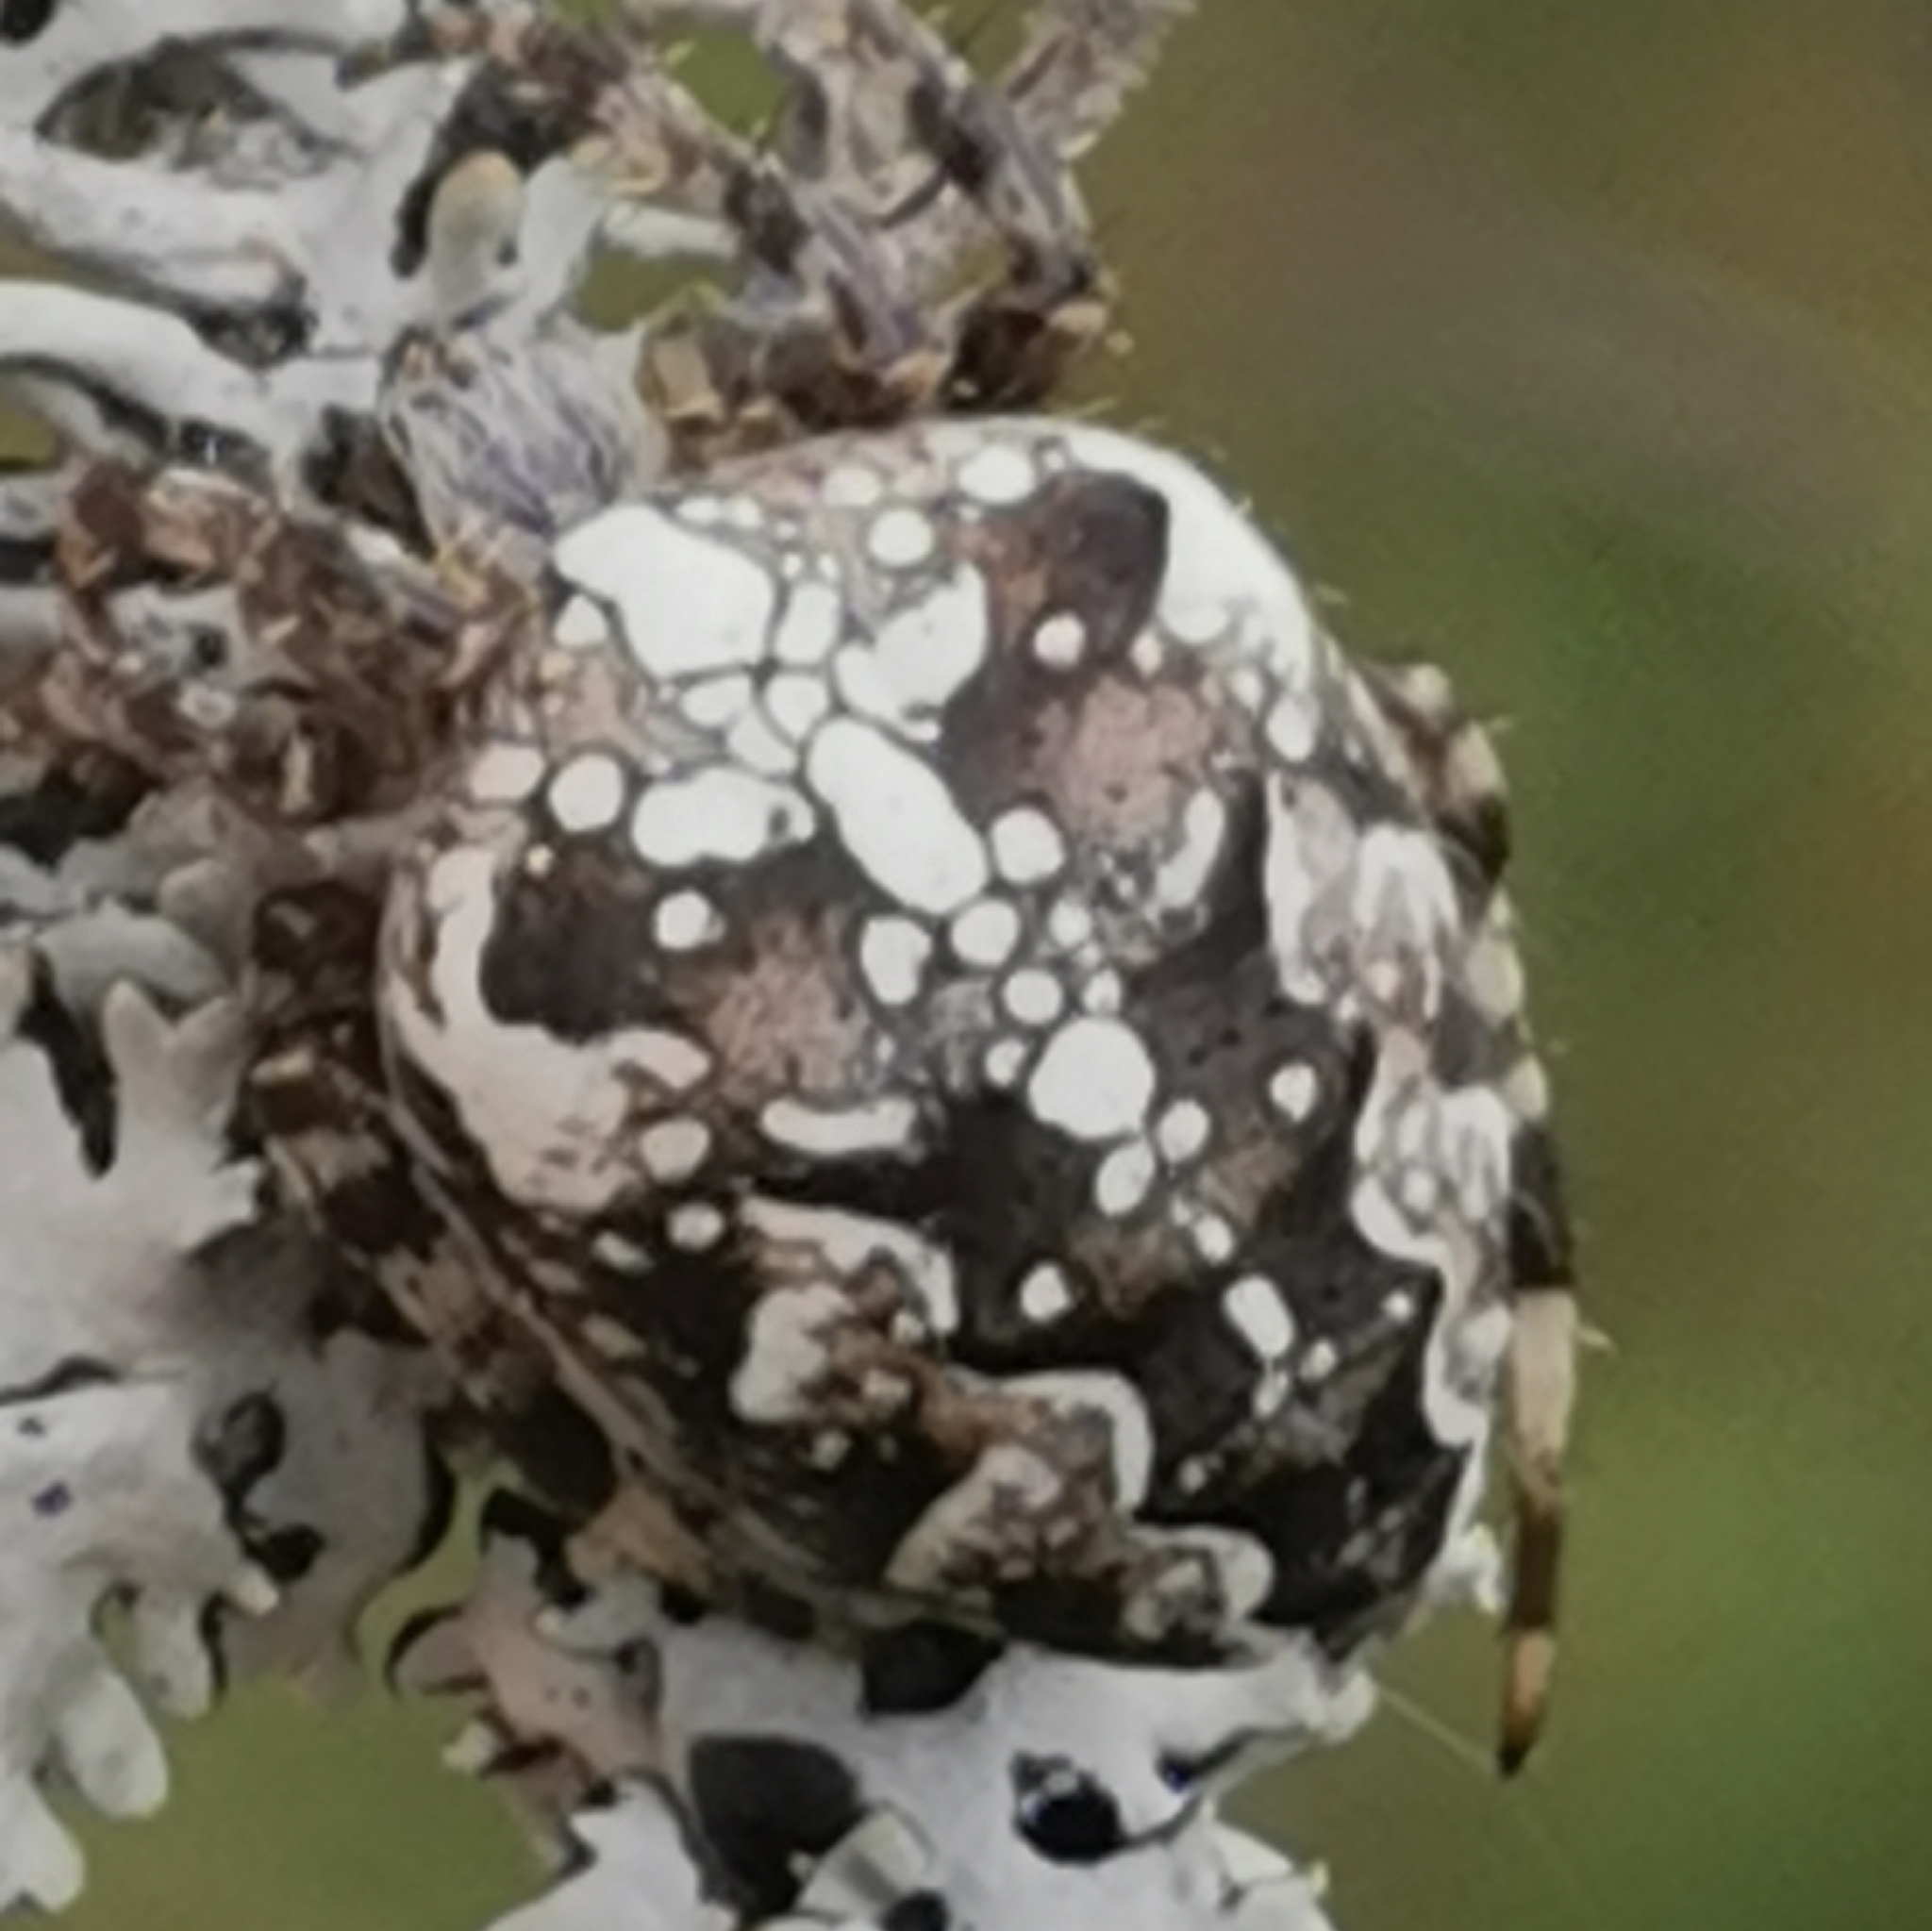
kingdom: Animalia
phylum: Arthropoda
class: Arachnida
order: Araneae
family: Araneidae
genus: Araneus
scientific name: Araneus diadematus
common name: Cross orbweaver
